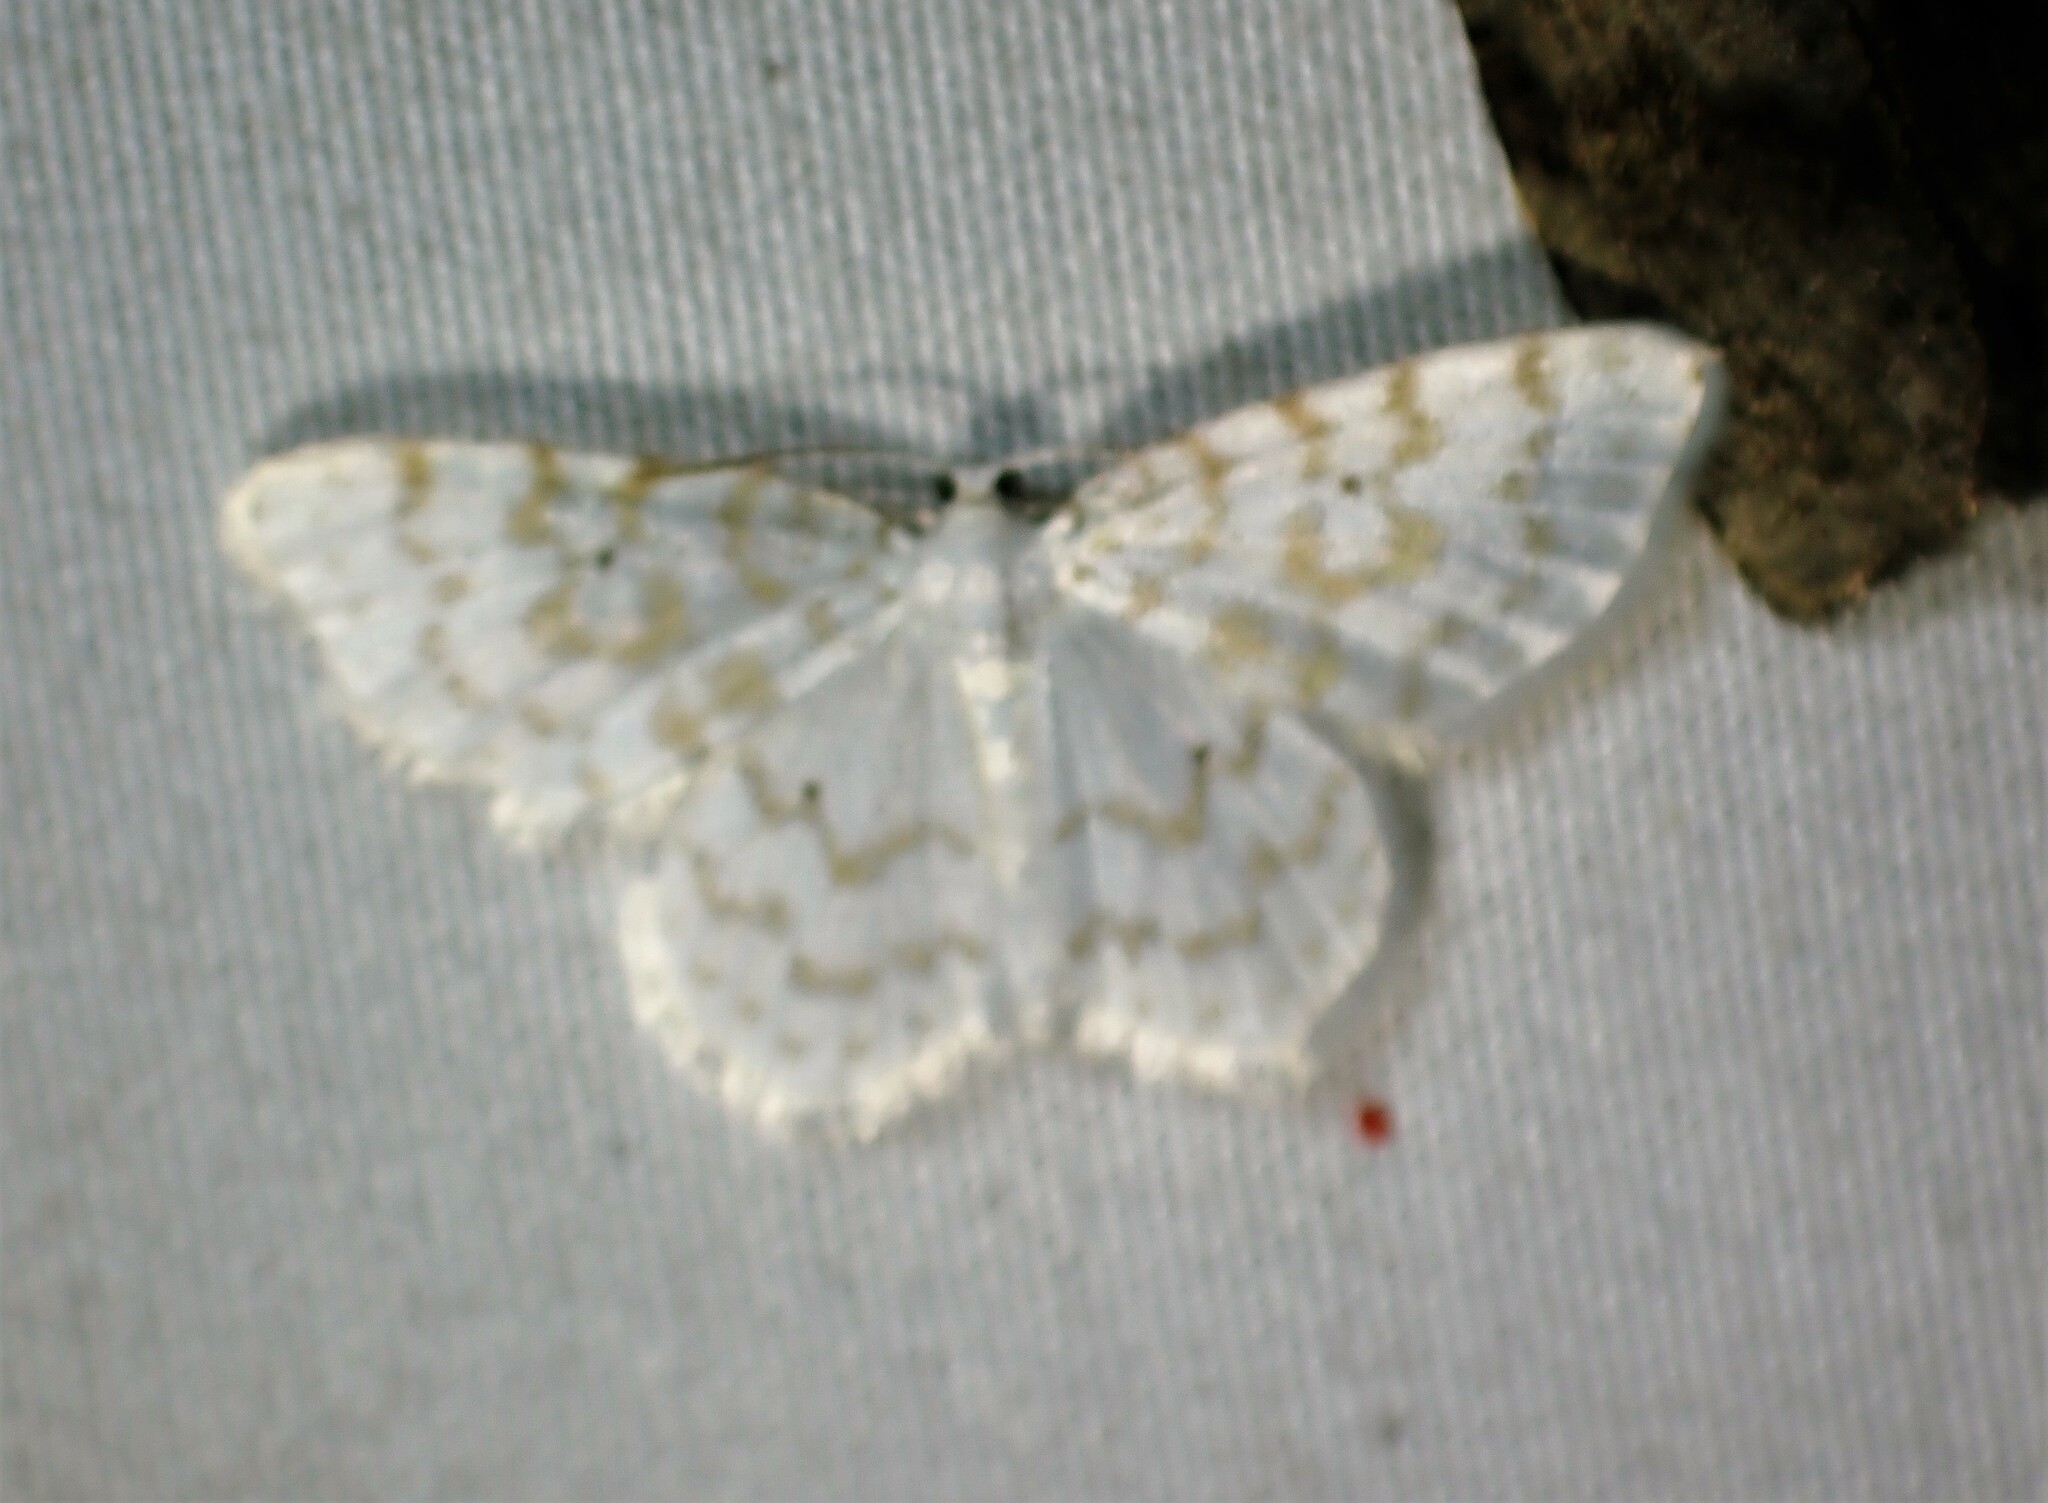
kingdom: Animalia
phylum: Arthropoda
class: Insecta
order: Lepidoptera
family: Geometridae
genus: Hydrelia
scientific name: Hydrelia albifera
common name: Fragile white carpet
